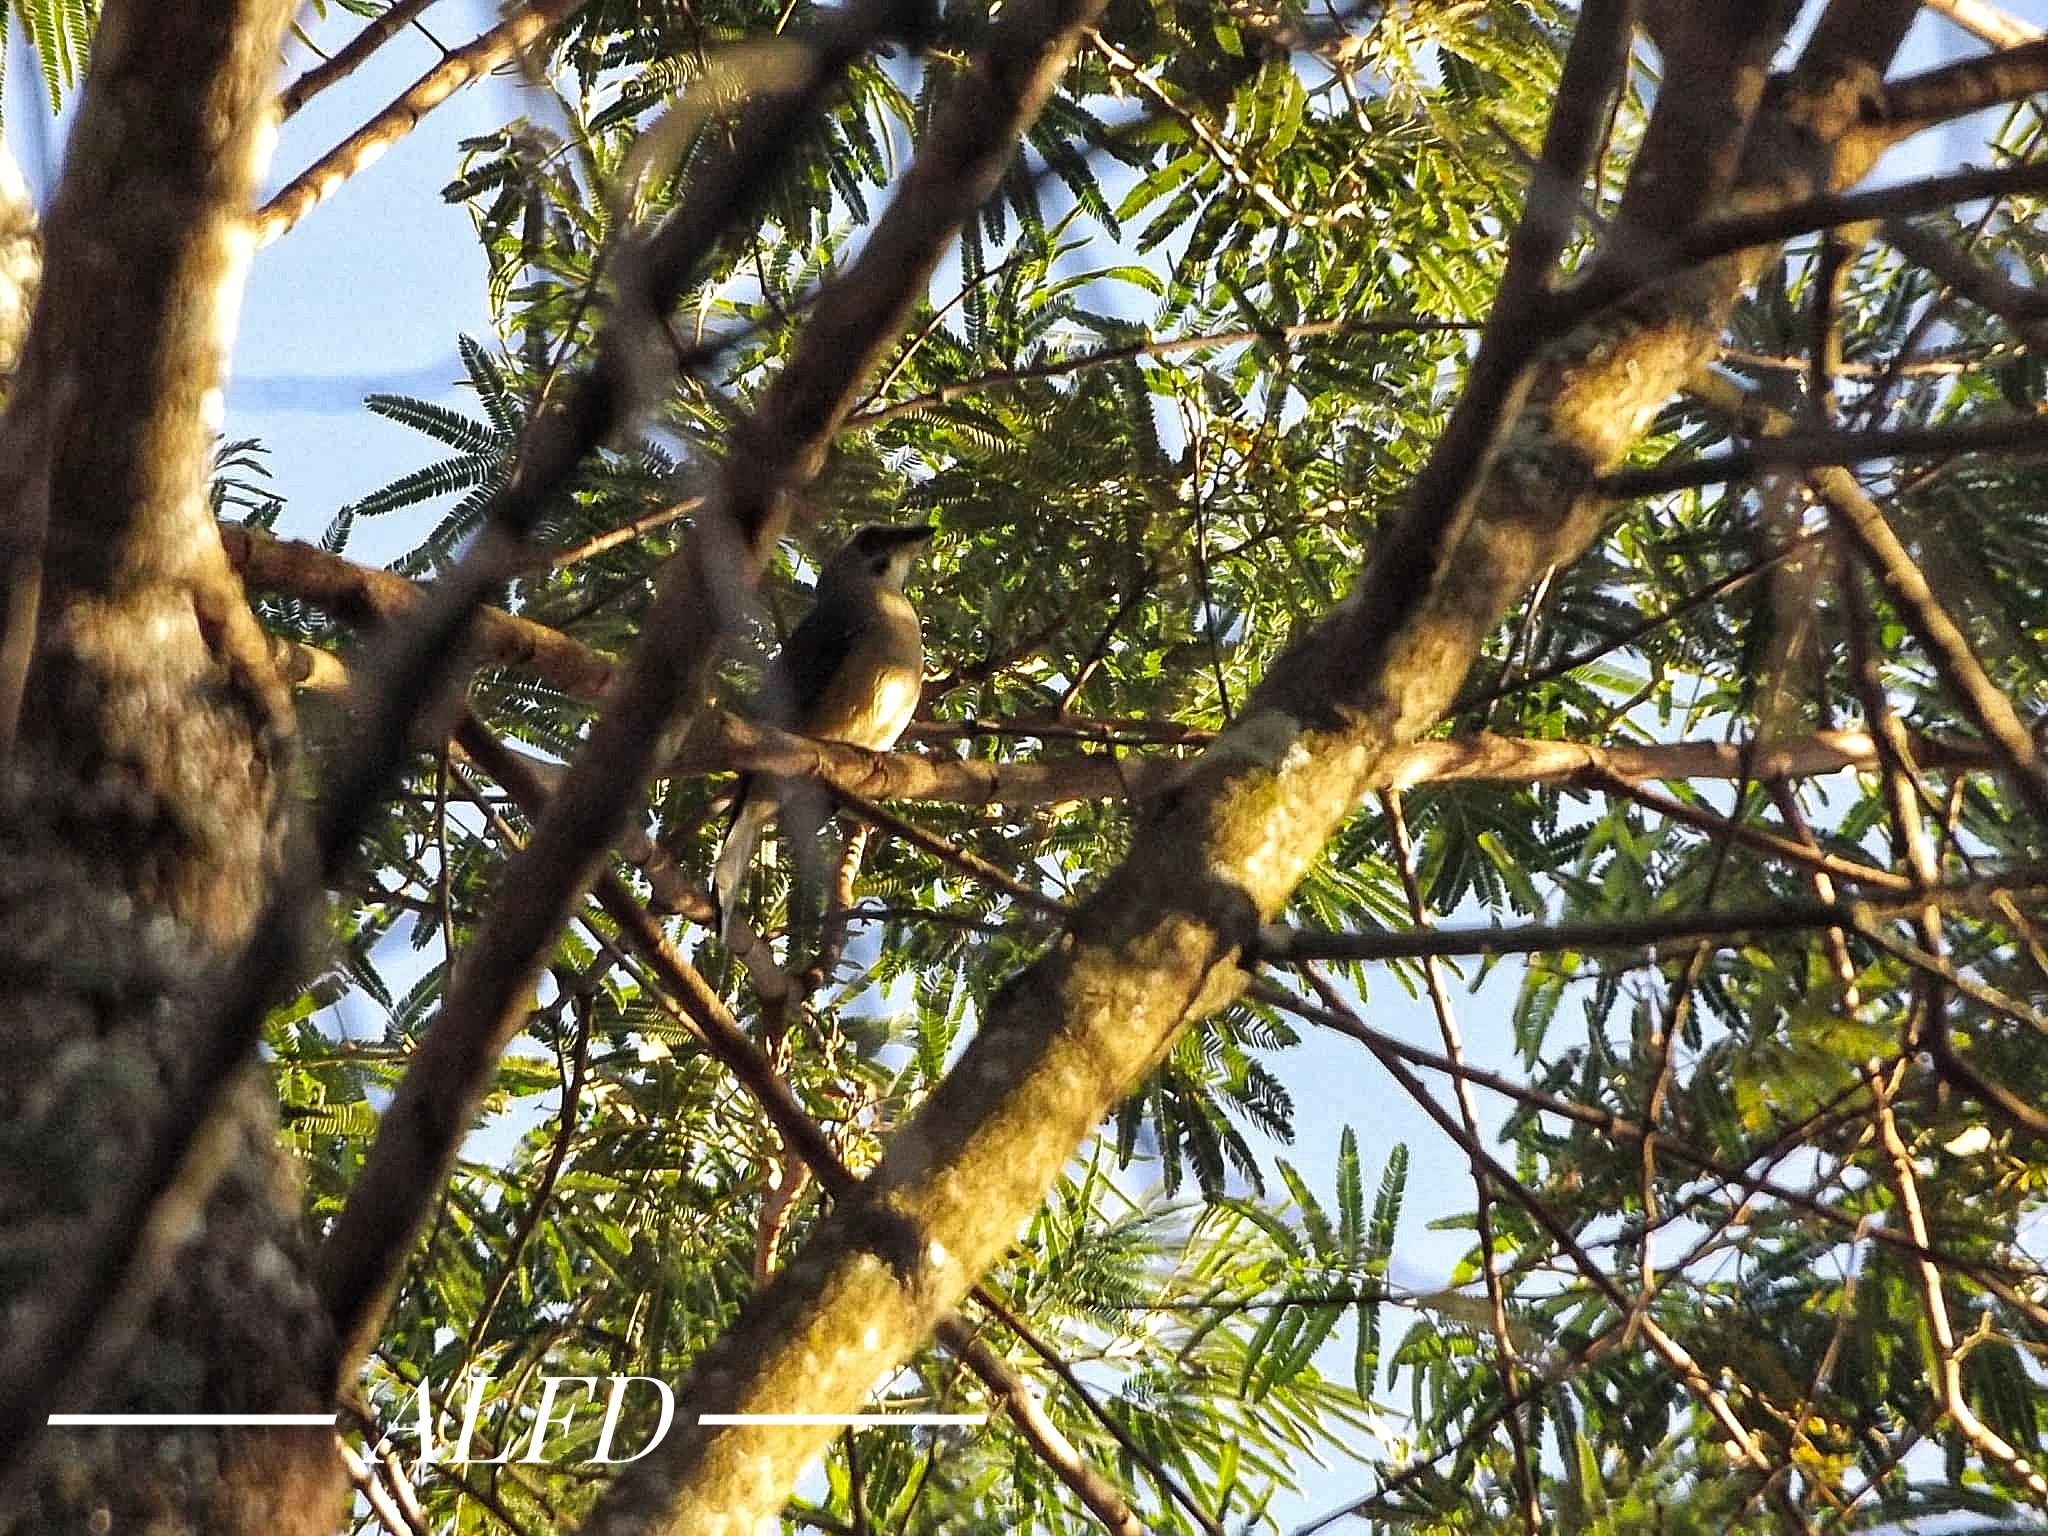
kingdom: Animalia
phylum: Chordata
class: Aves
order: Passeriformes
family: Thraupidae
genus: Saltator
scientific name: Saltator similis
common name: Green-winged saltator
